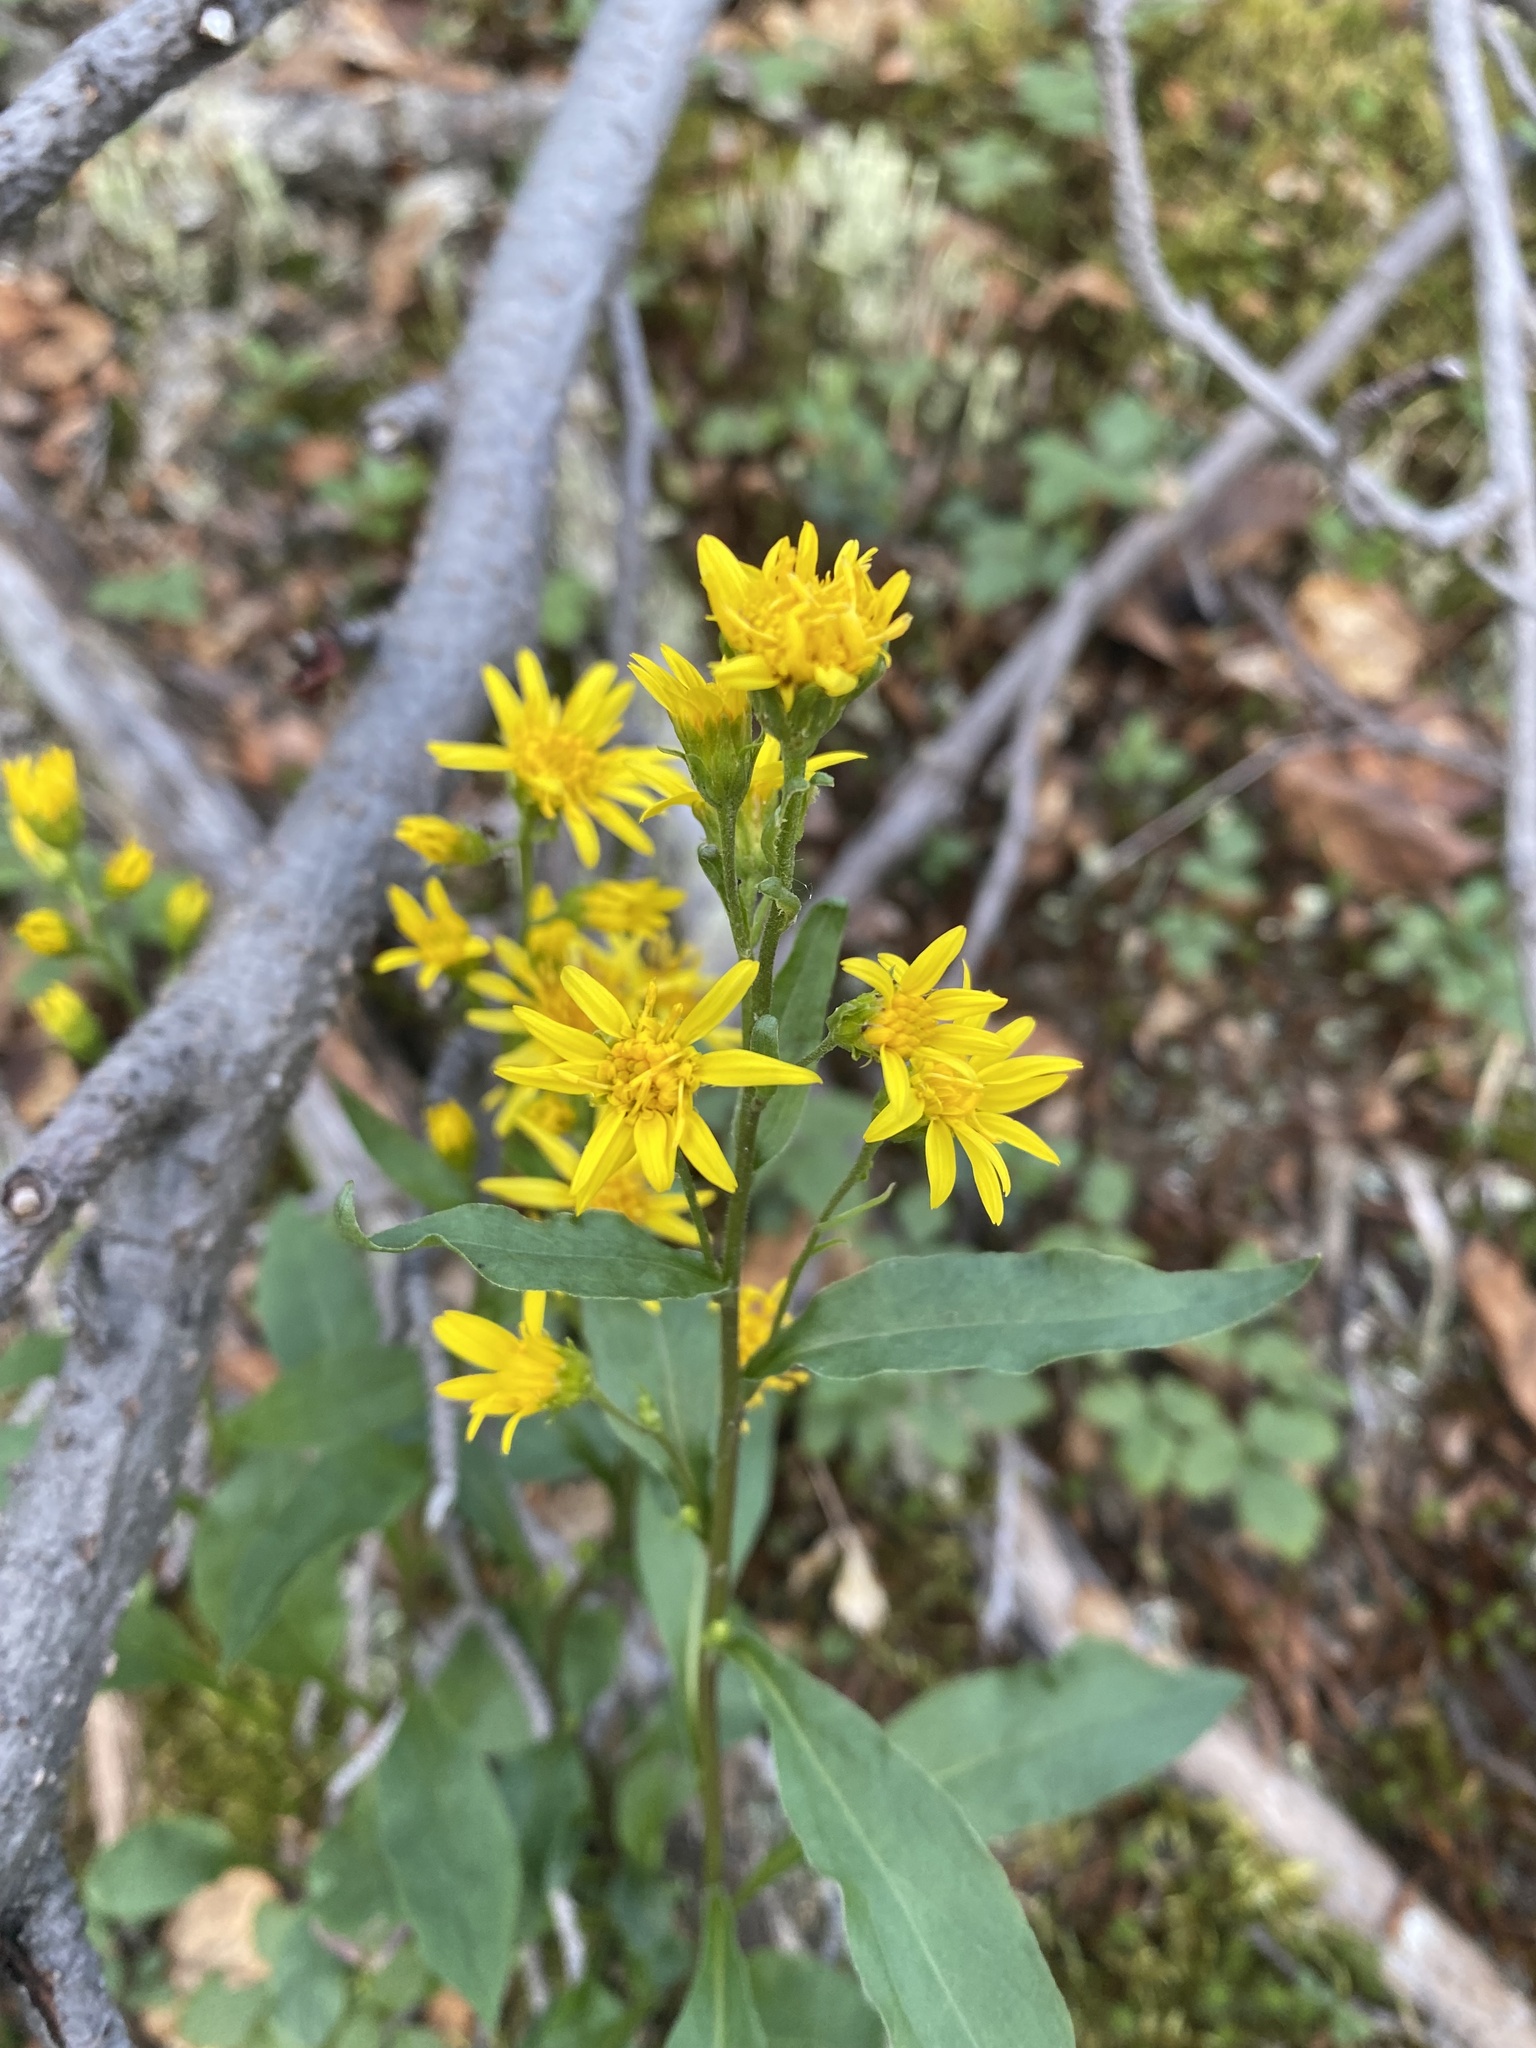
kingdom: Plantae
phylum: Tracheophyta
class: Magnoliopsida
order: Asterales
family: Asteraceae
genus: Solidago
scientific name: Solidago dahurica
